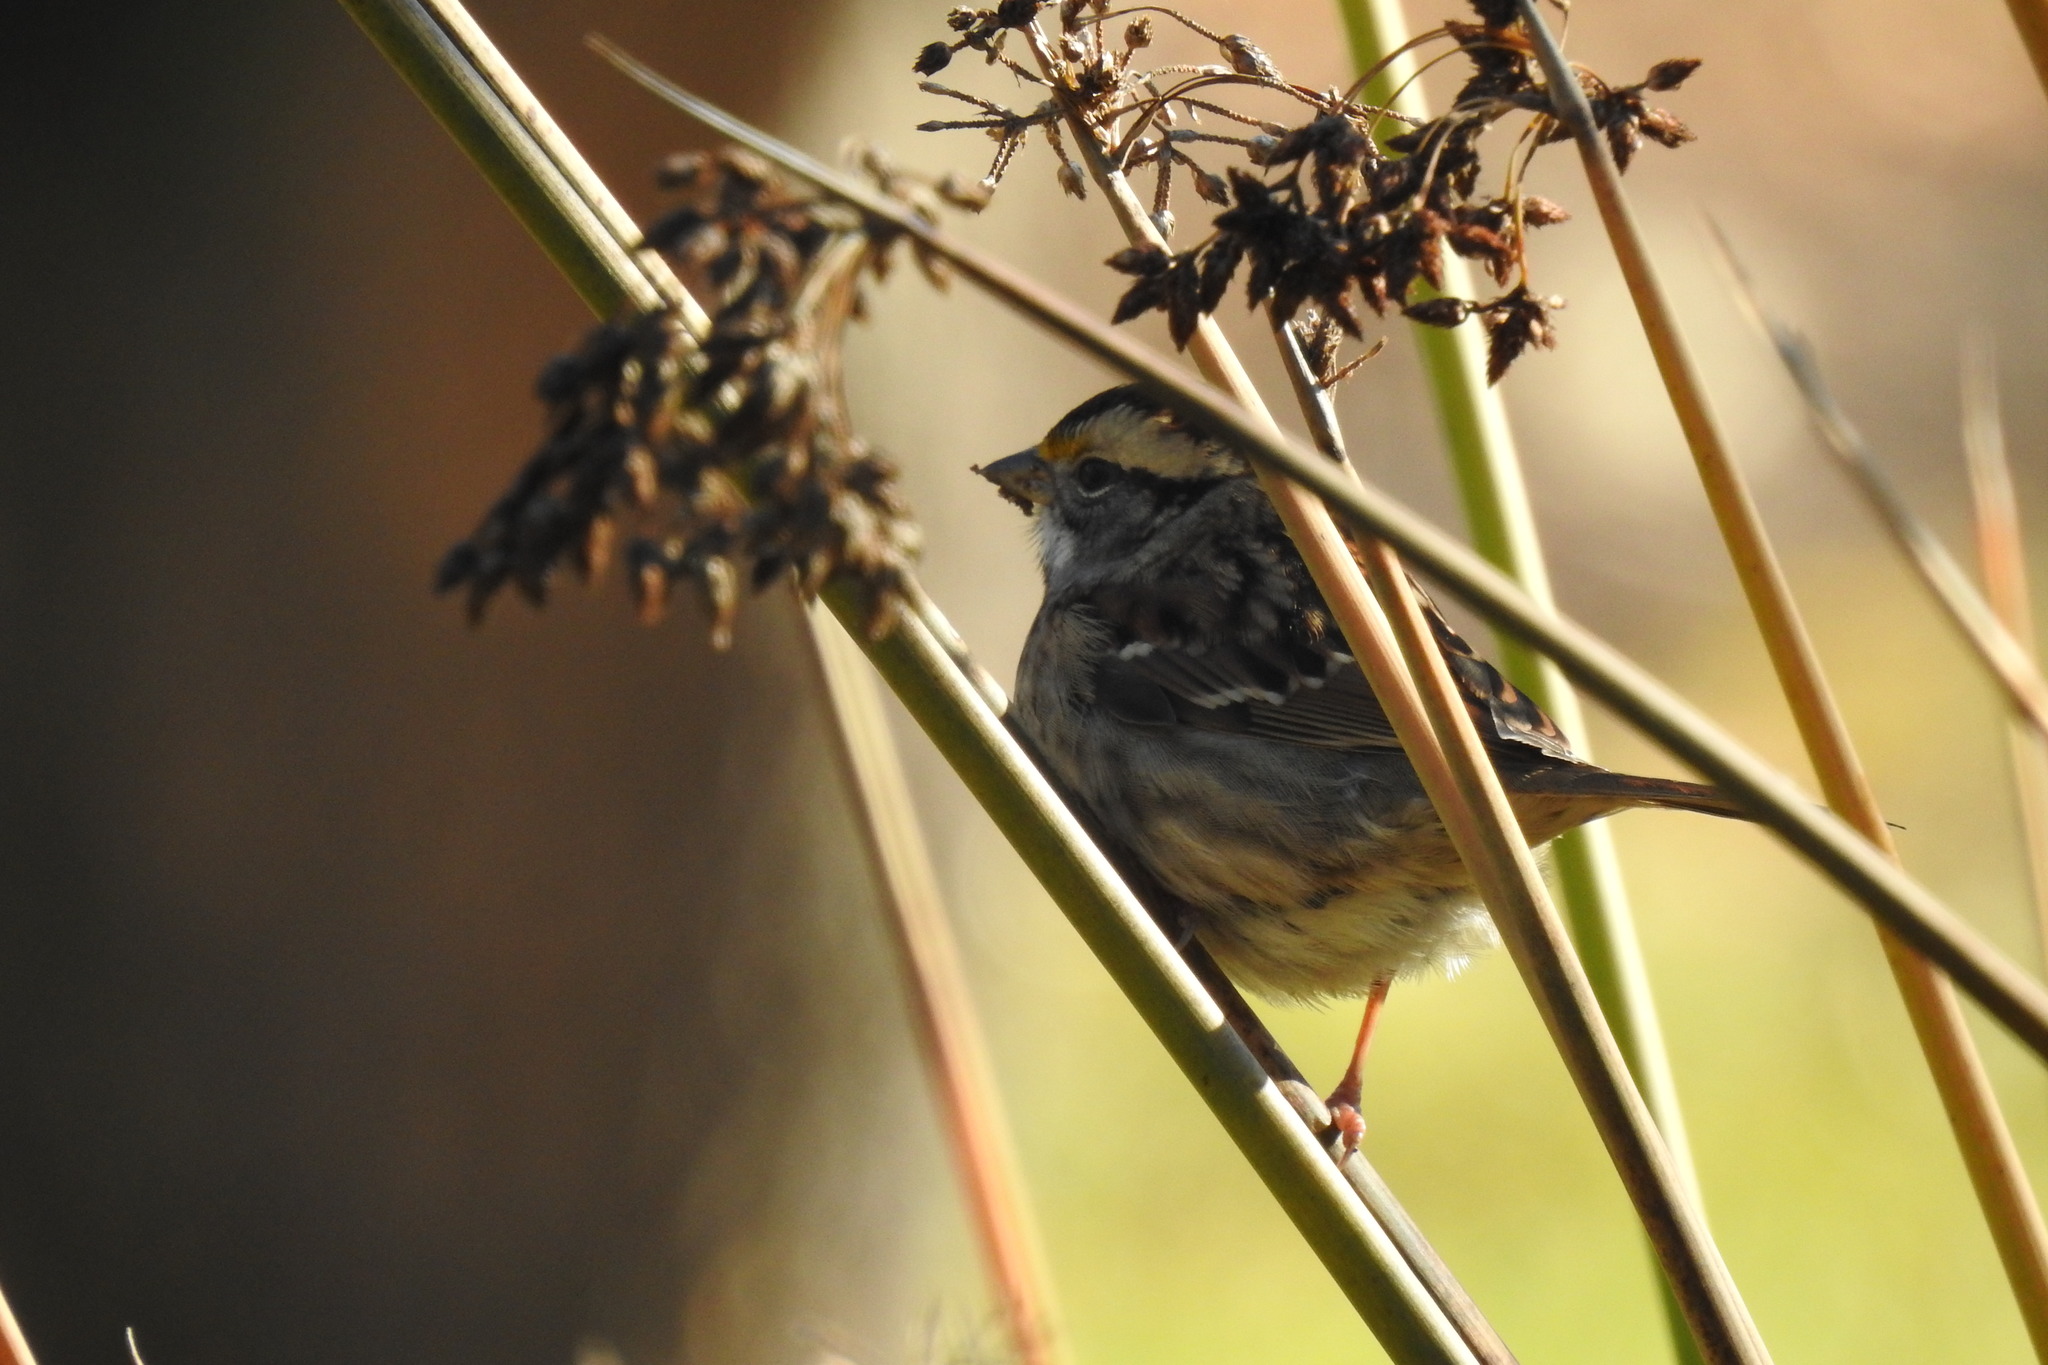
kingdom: Animalia
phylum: Chordata
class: Aves
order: Passeriformes
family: Passerellidae
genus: Zonotrichia
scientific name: Zonotrichia albicollis
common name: White-throated sparrow
